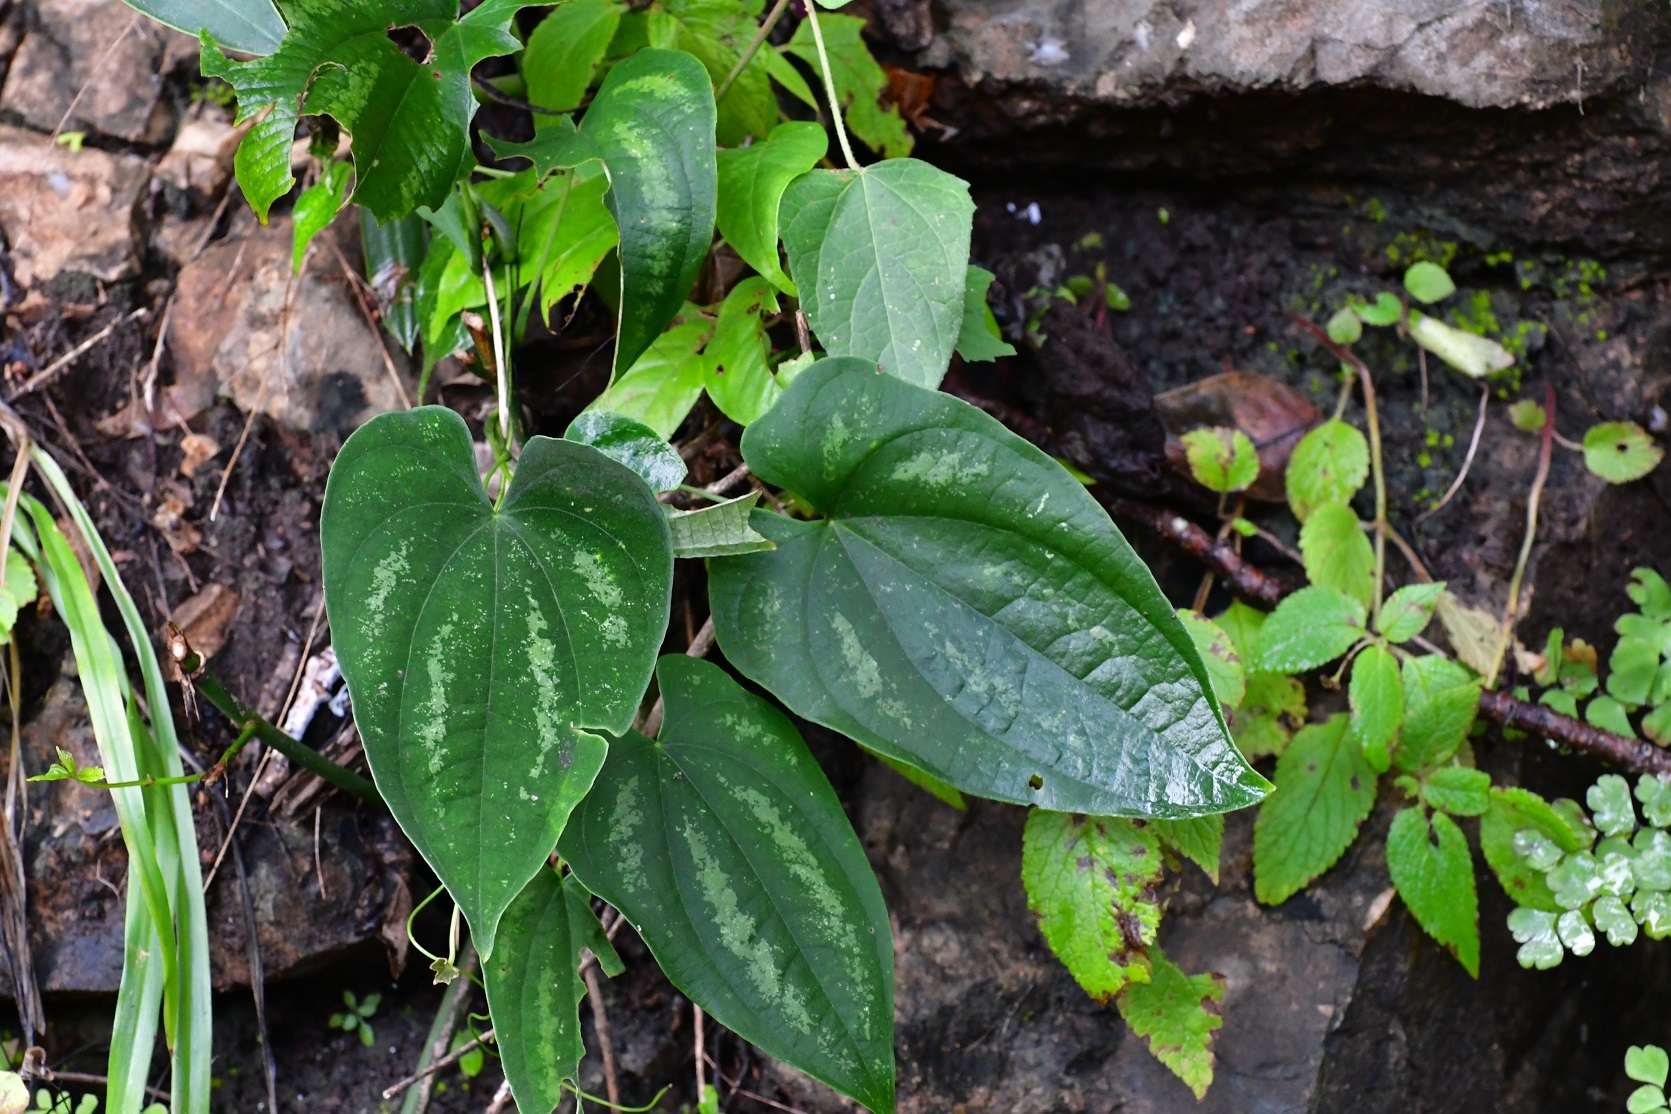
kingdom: Plantae
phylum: Tracheophyta
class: Liliopsida
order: Dioscoreales
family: Dioscoreaceae
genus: Dioscorea
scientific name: Dioscorea cyanisticta
